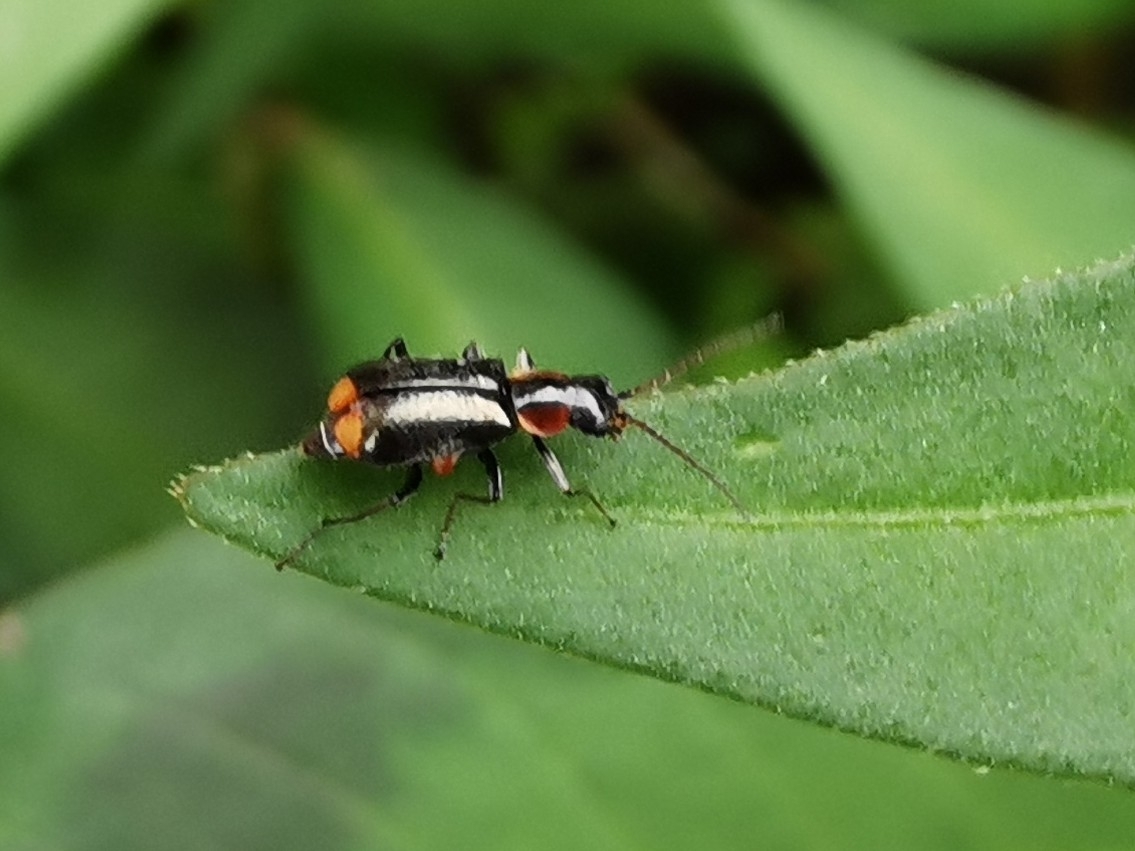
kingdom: Animalia
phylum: Arthropoda
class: Insecta
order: Coleoptera
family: Melyridae
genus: Axinotarsus
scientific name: Axinotarsus pulicarius
